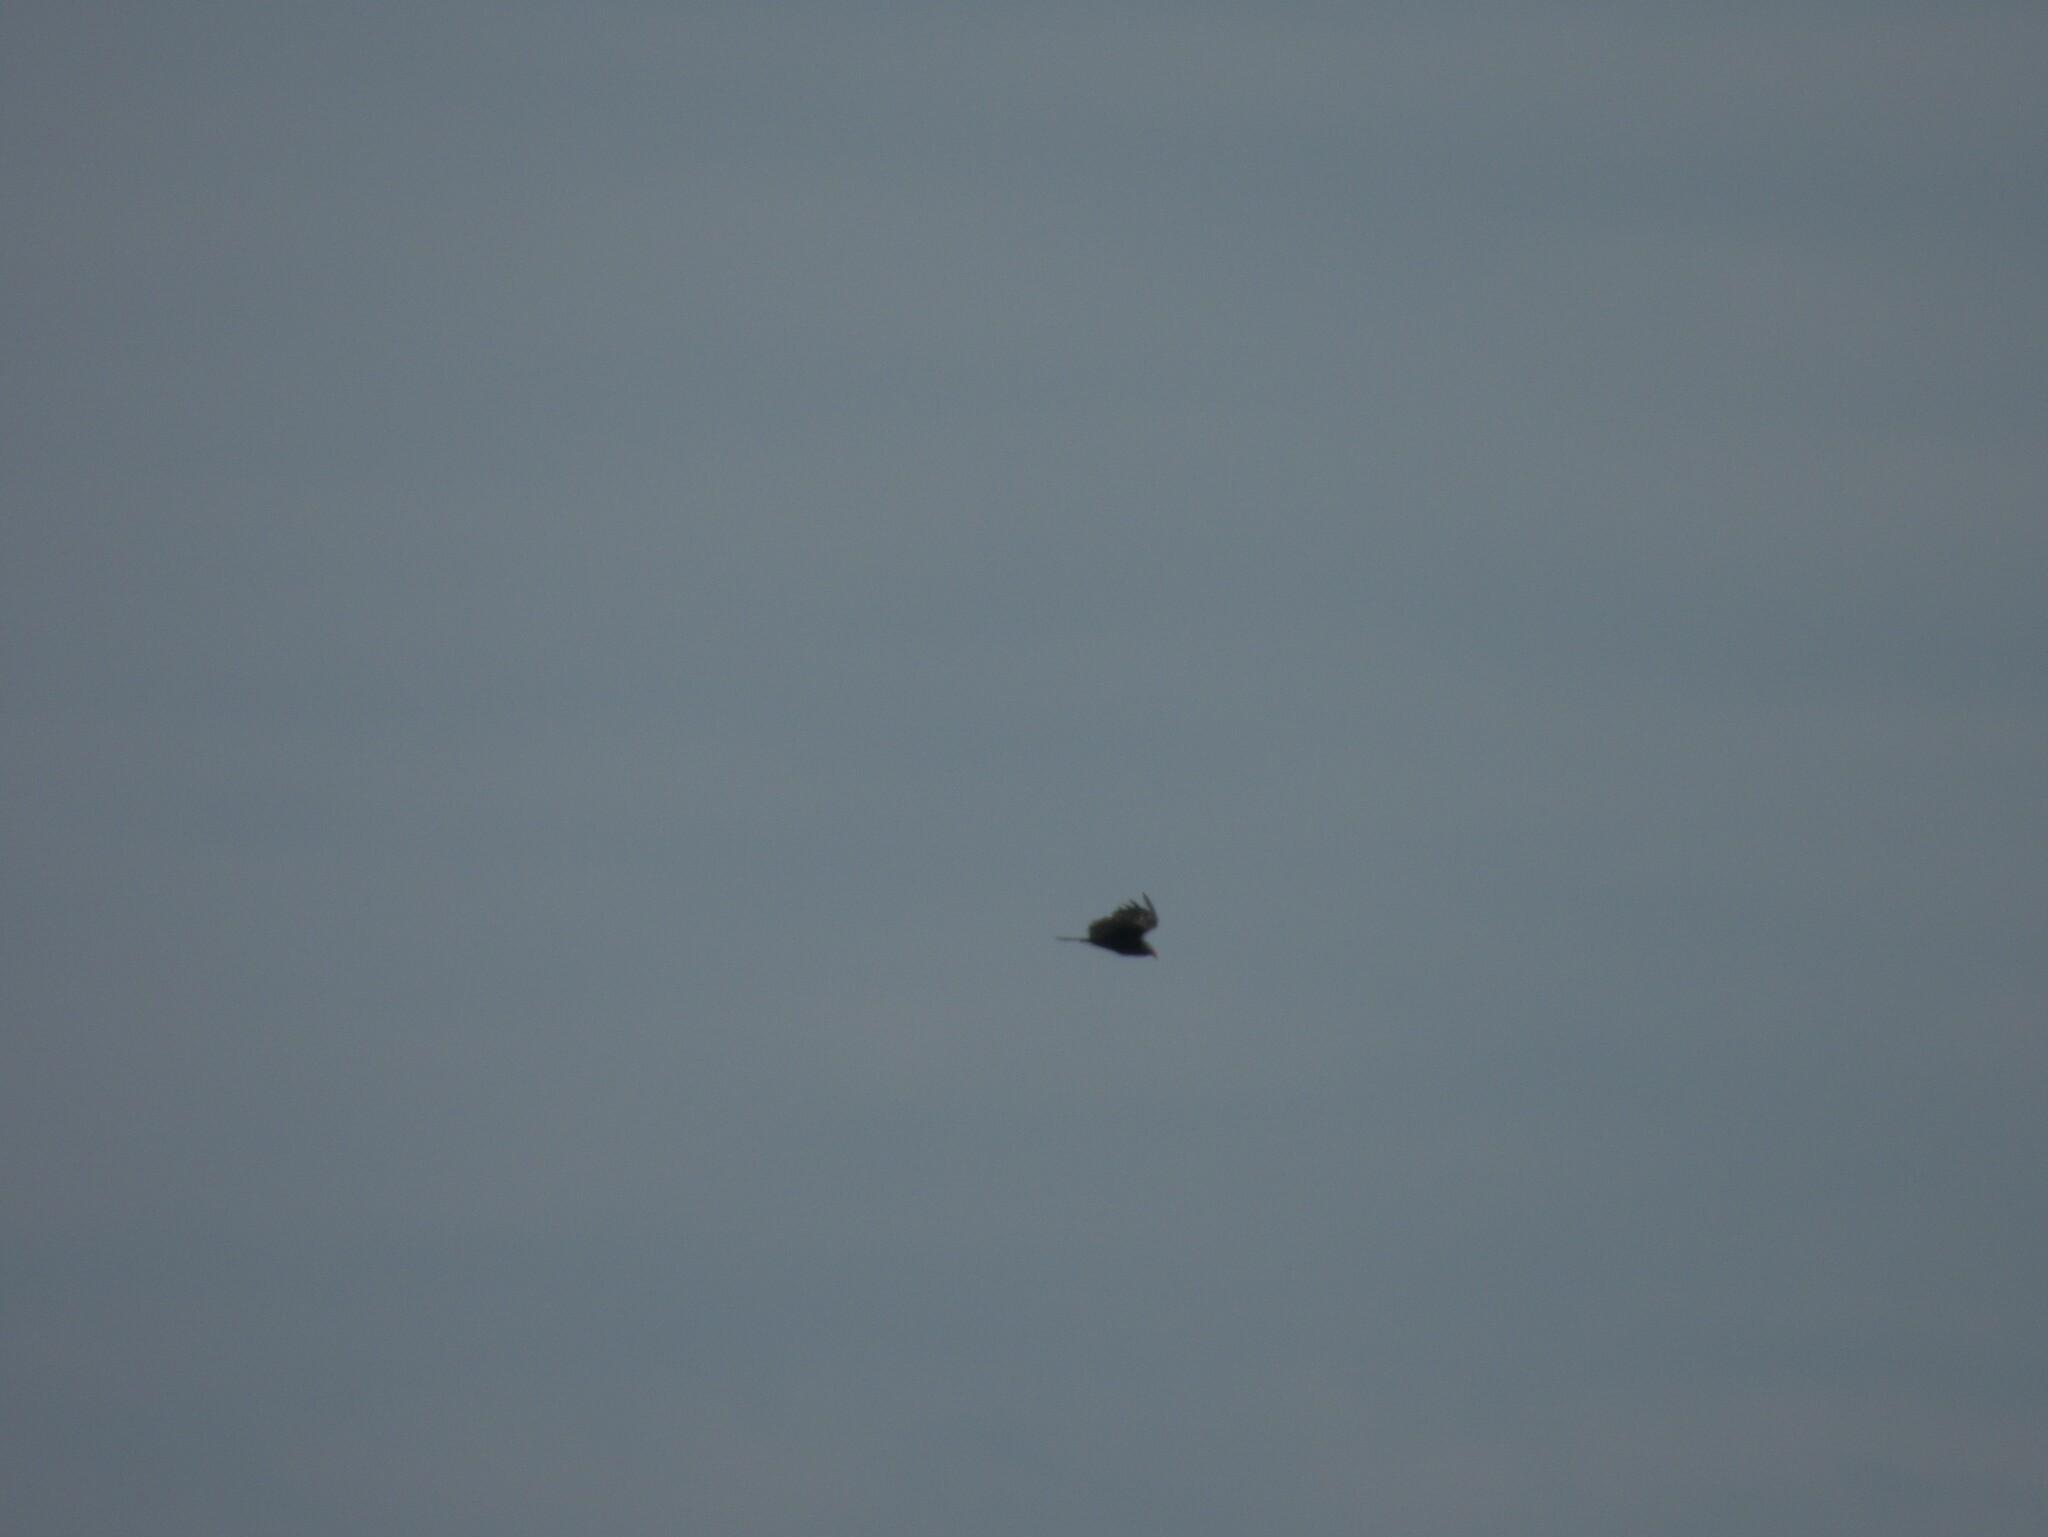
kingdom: Animalia
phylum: Chordata
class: Aves
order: Accipitriformes
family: Cathartidae
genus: Cathartes
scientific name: Cathartes aura
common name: Turkey vulture
